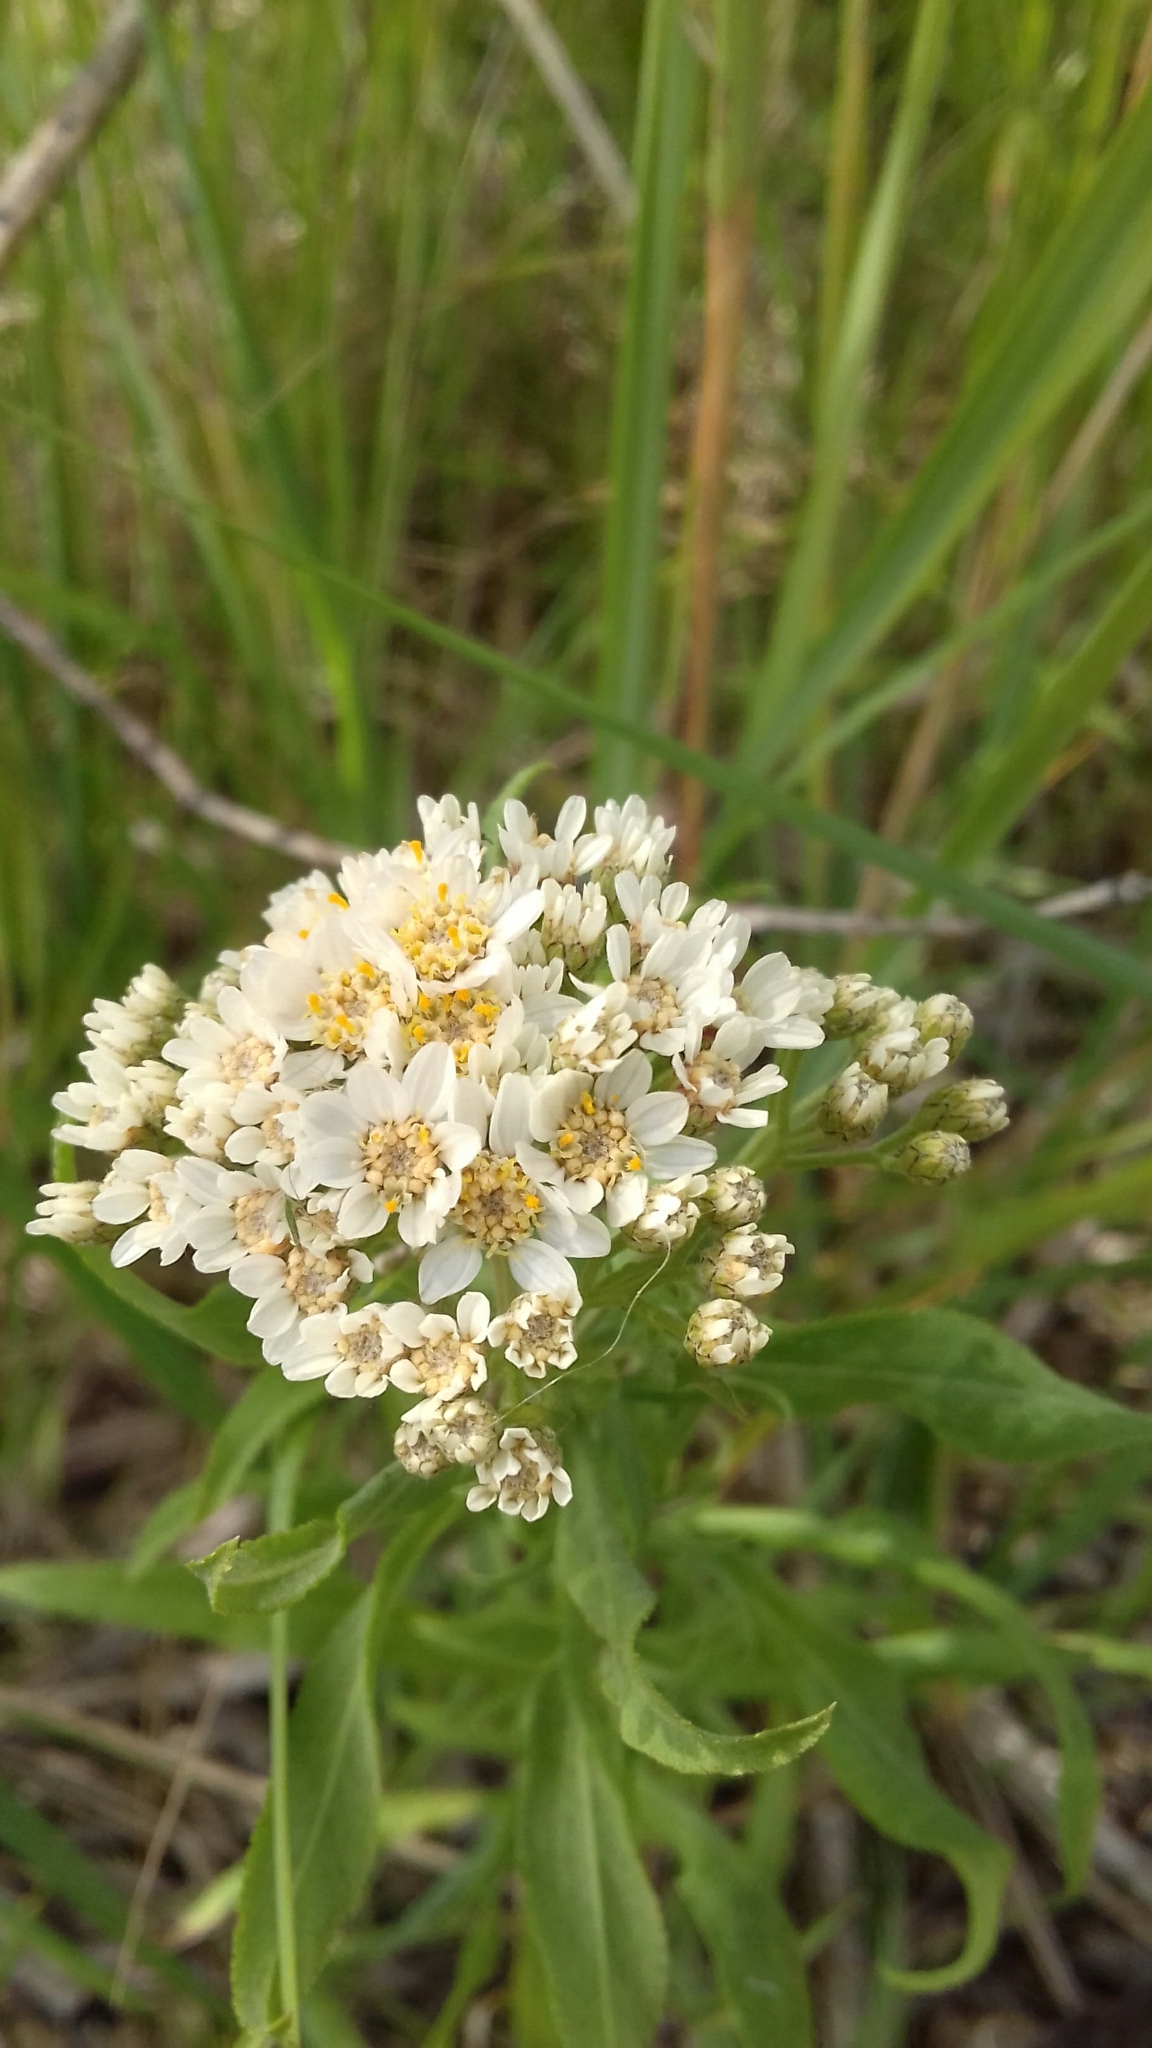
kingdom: Plantae
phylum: Tracheophyta
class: Magnoliopsida
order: Asterales
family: Asteraceae
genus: Achillea
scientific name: Achillea salicifolia
